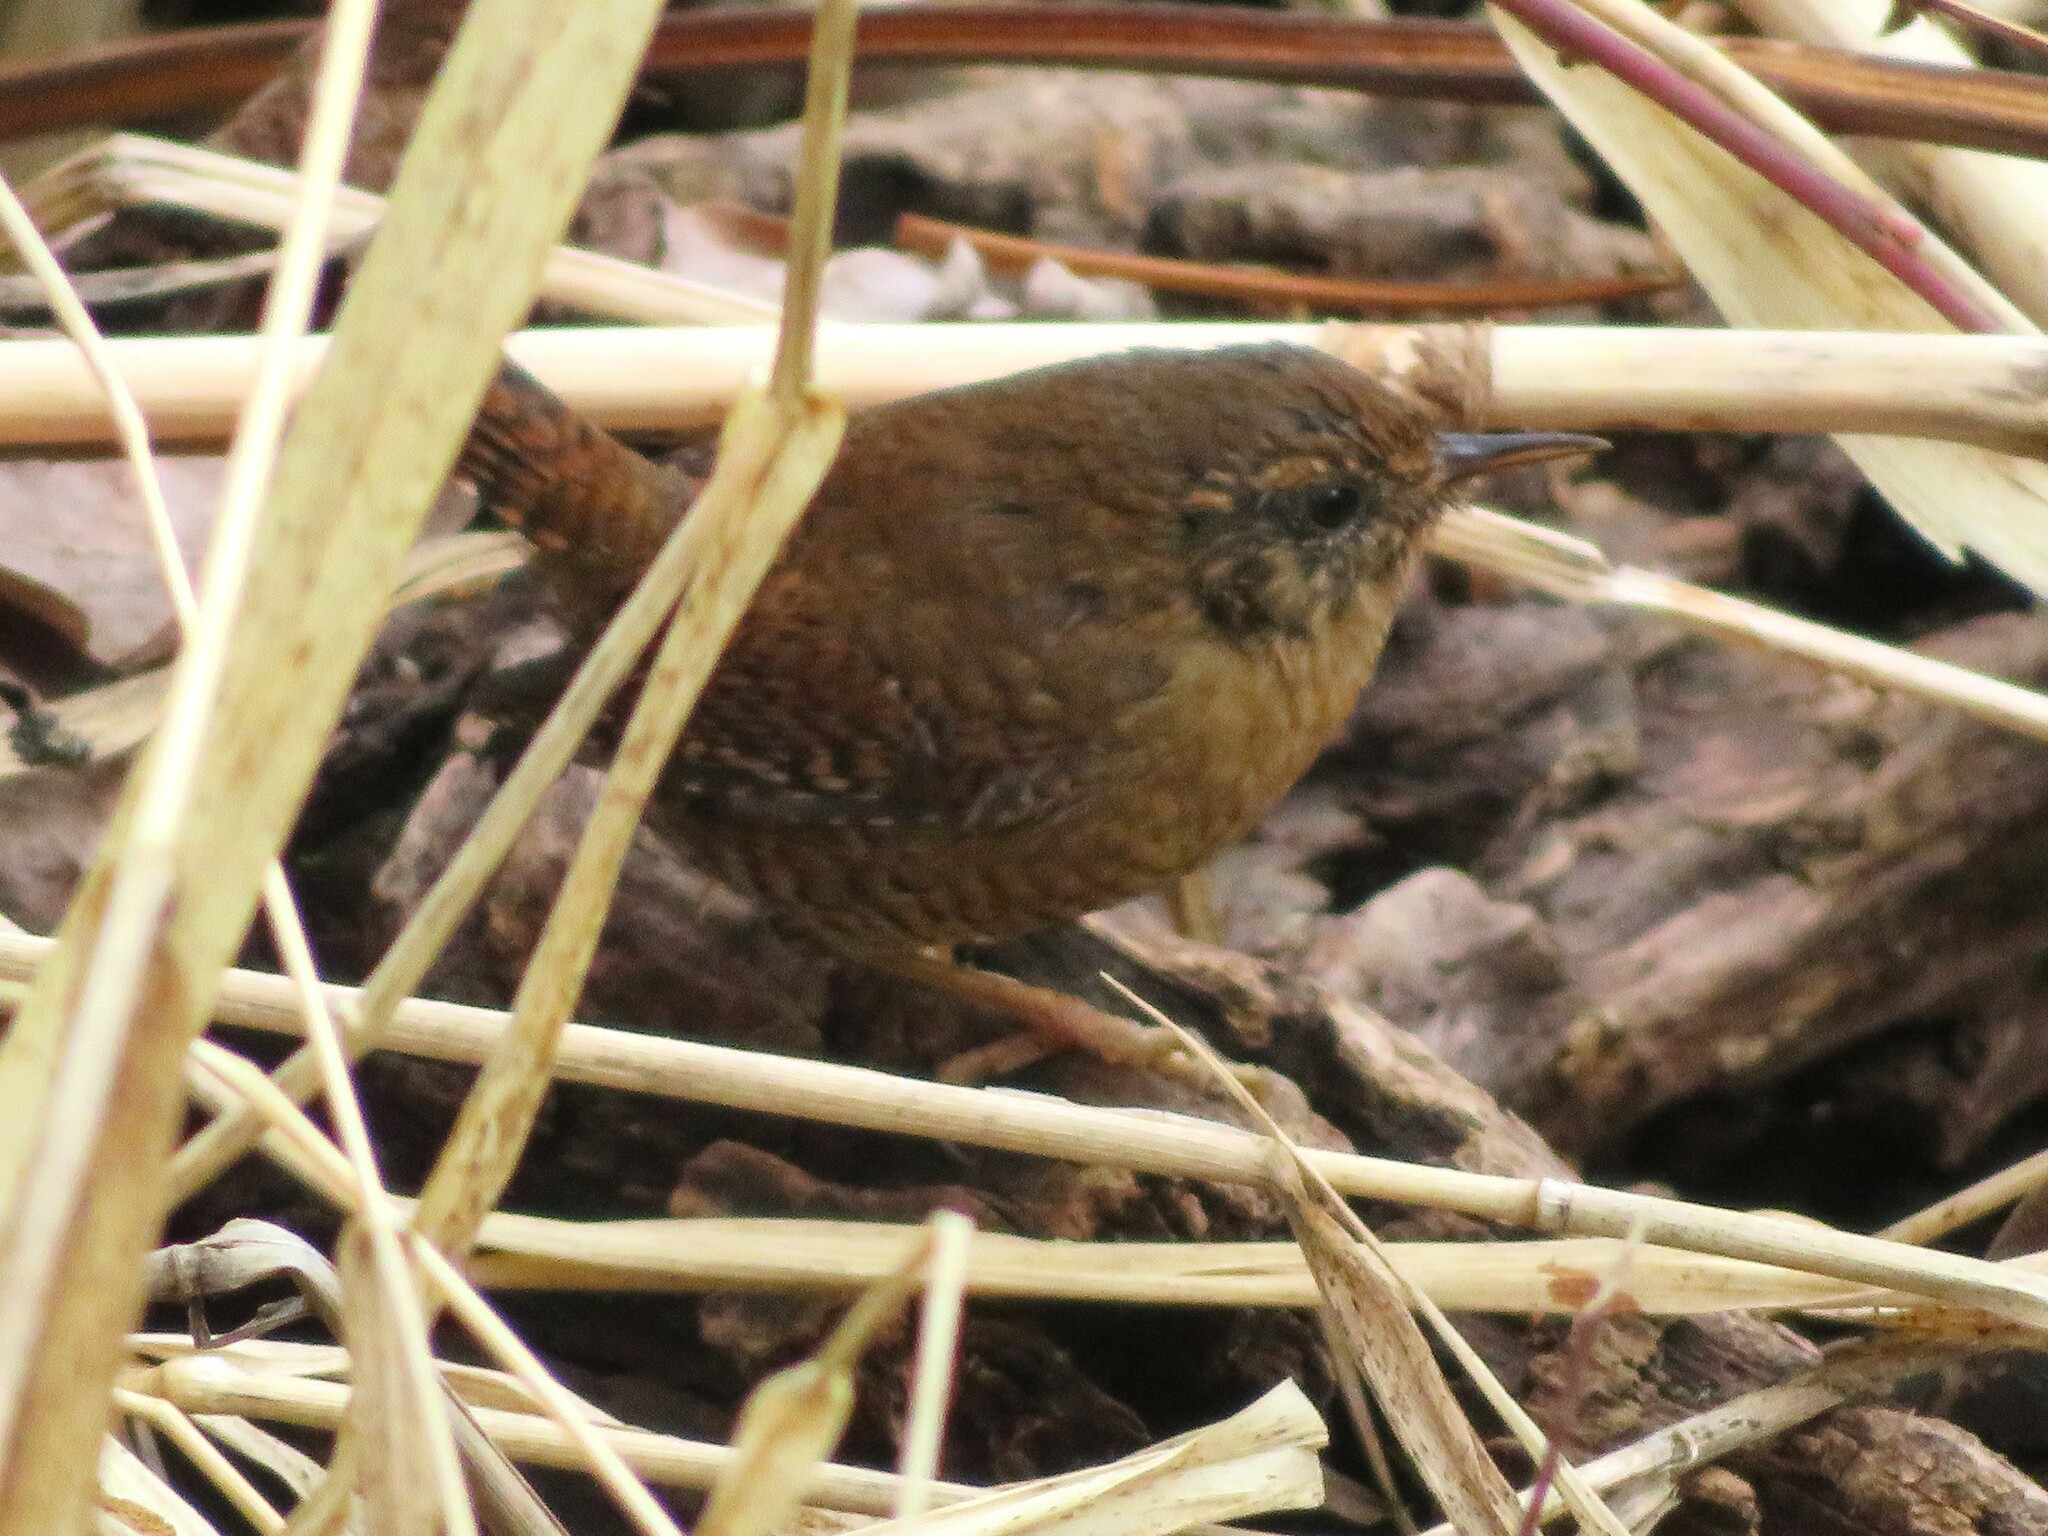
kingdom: Animalia
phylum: Chordata
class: Aves
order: Passeriformes
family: Troglodytidae
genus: Troglodytes
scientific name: Troglodytes pacificus
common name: Pacific wren
